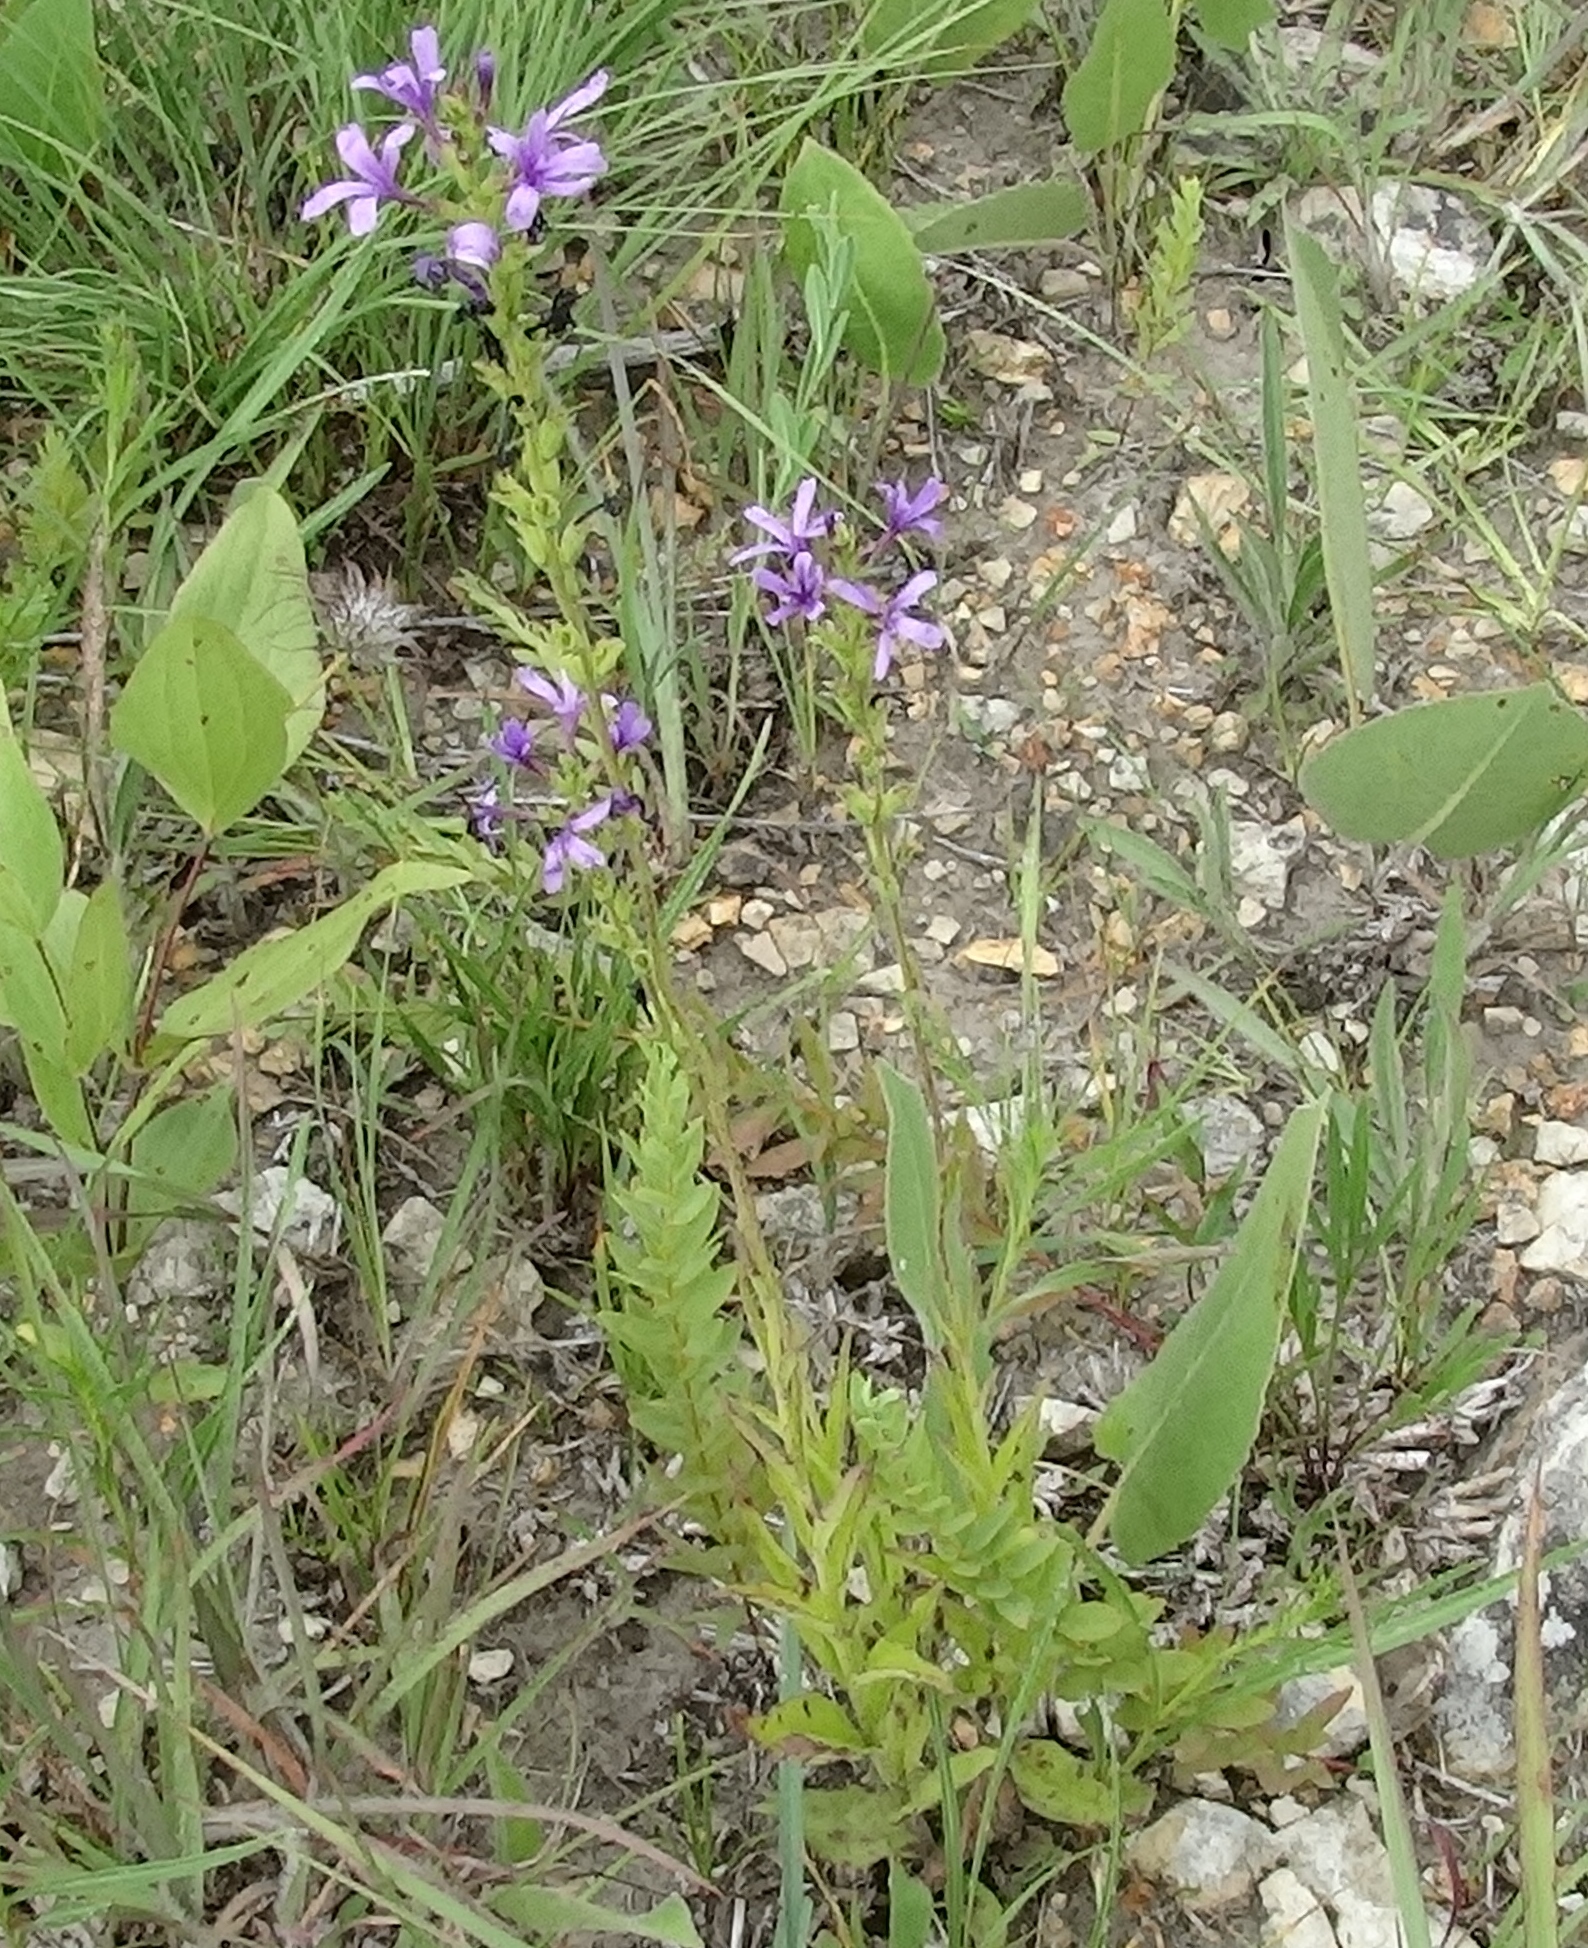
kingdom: Plantae
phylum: Tracheophyta
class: Magnoliopsida
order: Lamiales
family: Orobanchaceae
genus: Buchnera
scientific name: Buchnera americana
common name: American bluehearts
